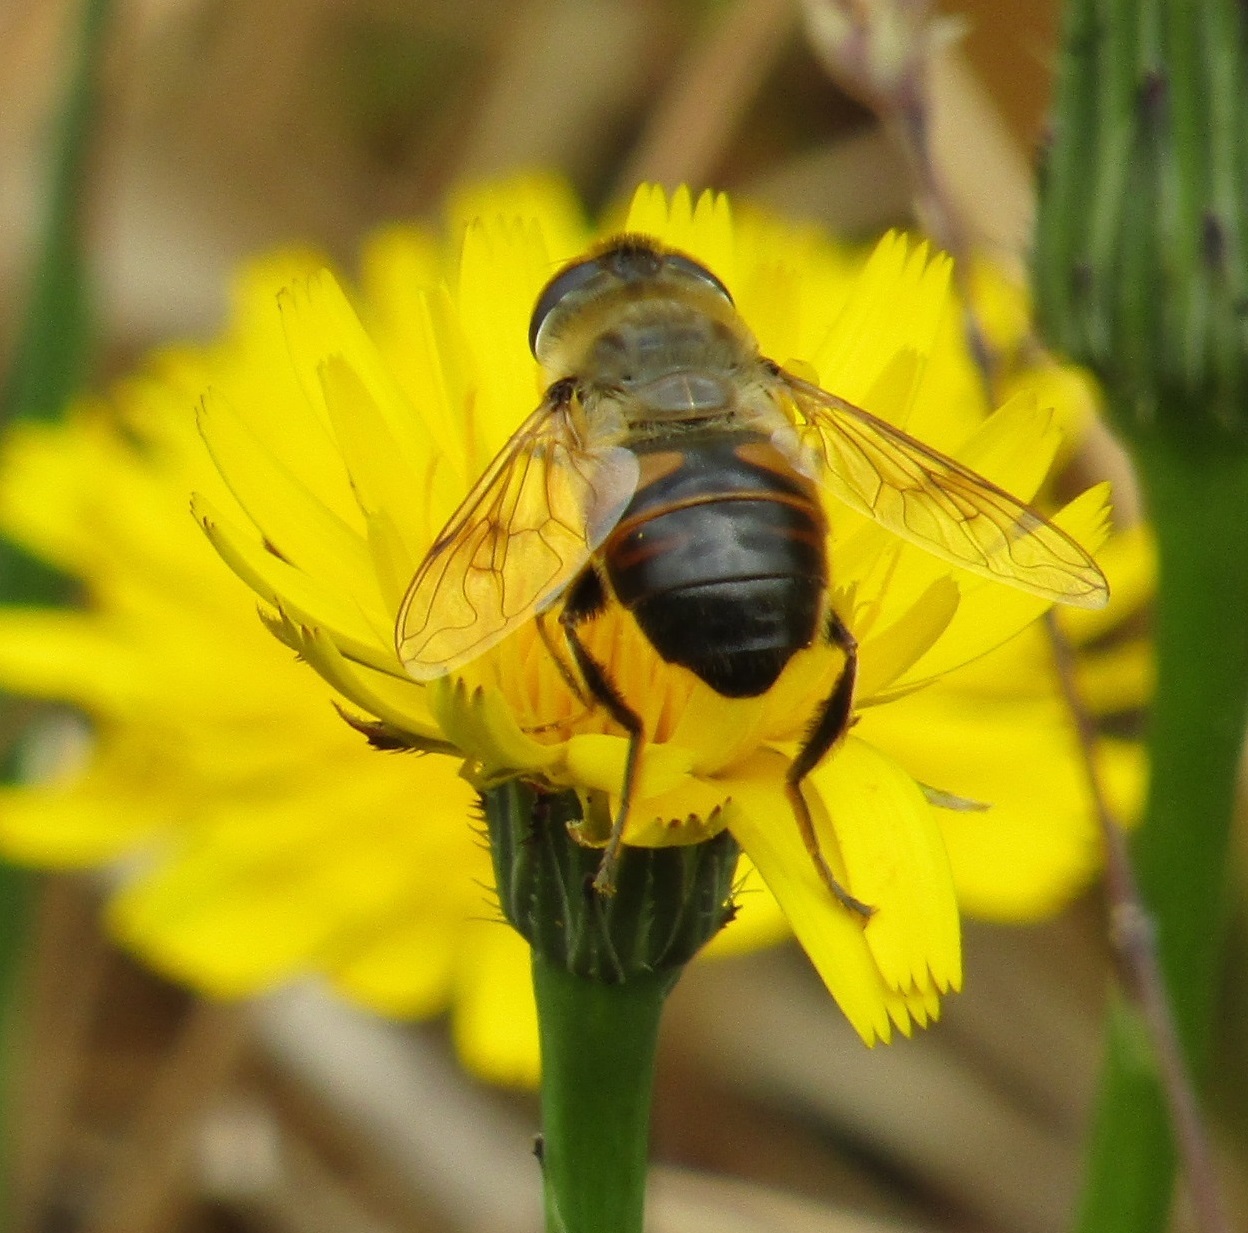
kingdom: Animalia
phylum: Arthropoda
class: Insecta
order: Diptera
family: Syrphidae
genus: Eristalis
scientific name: Eristalis tenax
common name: Drone fly
